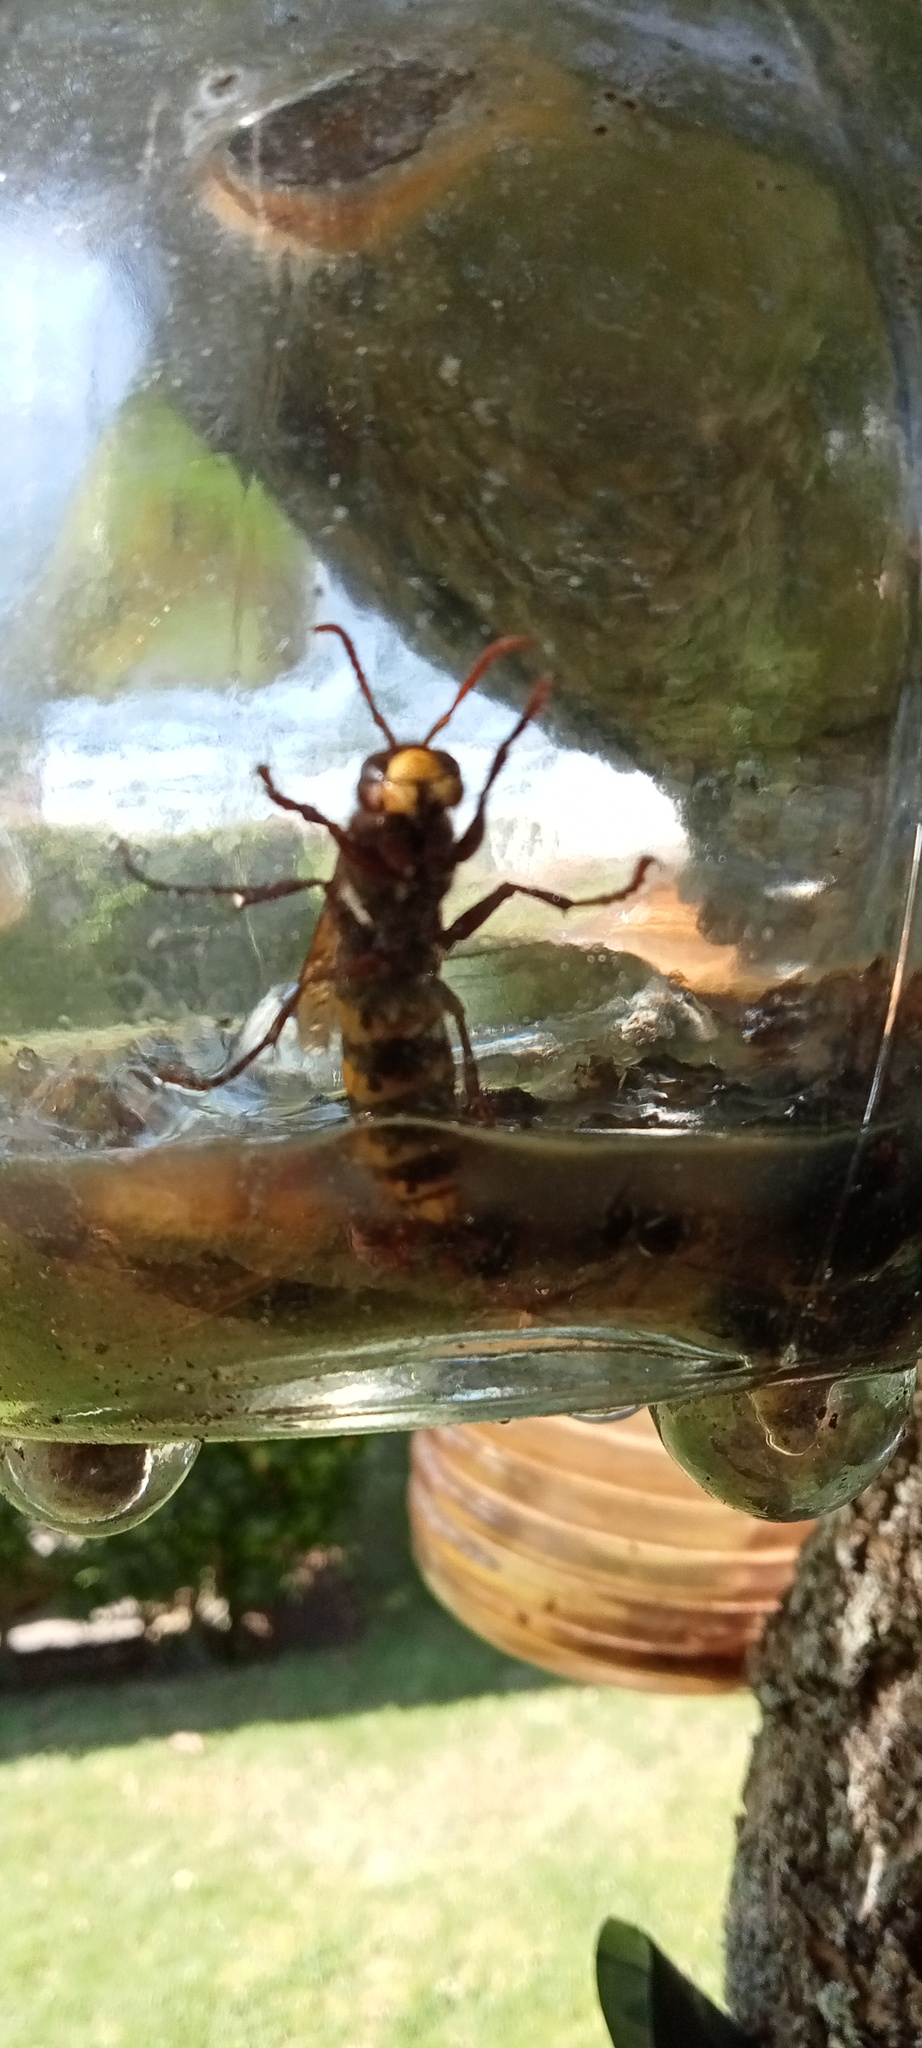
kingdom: Animalia
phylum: Arthropoda
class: Insecta
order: Hymenoptera
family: Vespidae
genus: Vespa
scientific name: Vespa crabro
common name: Hornet
